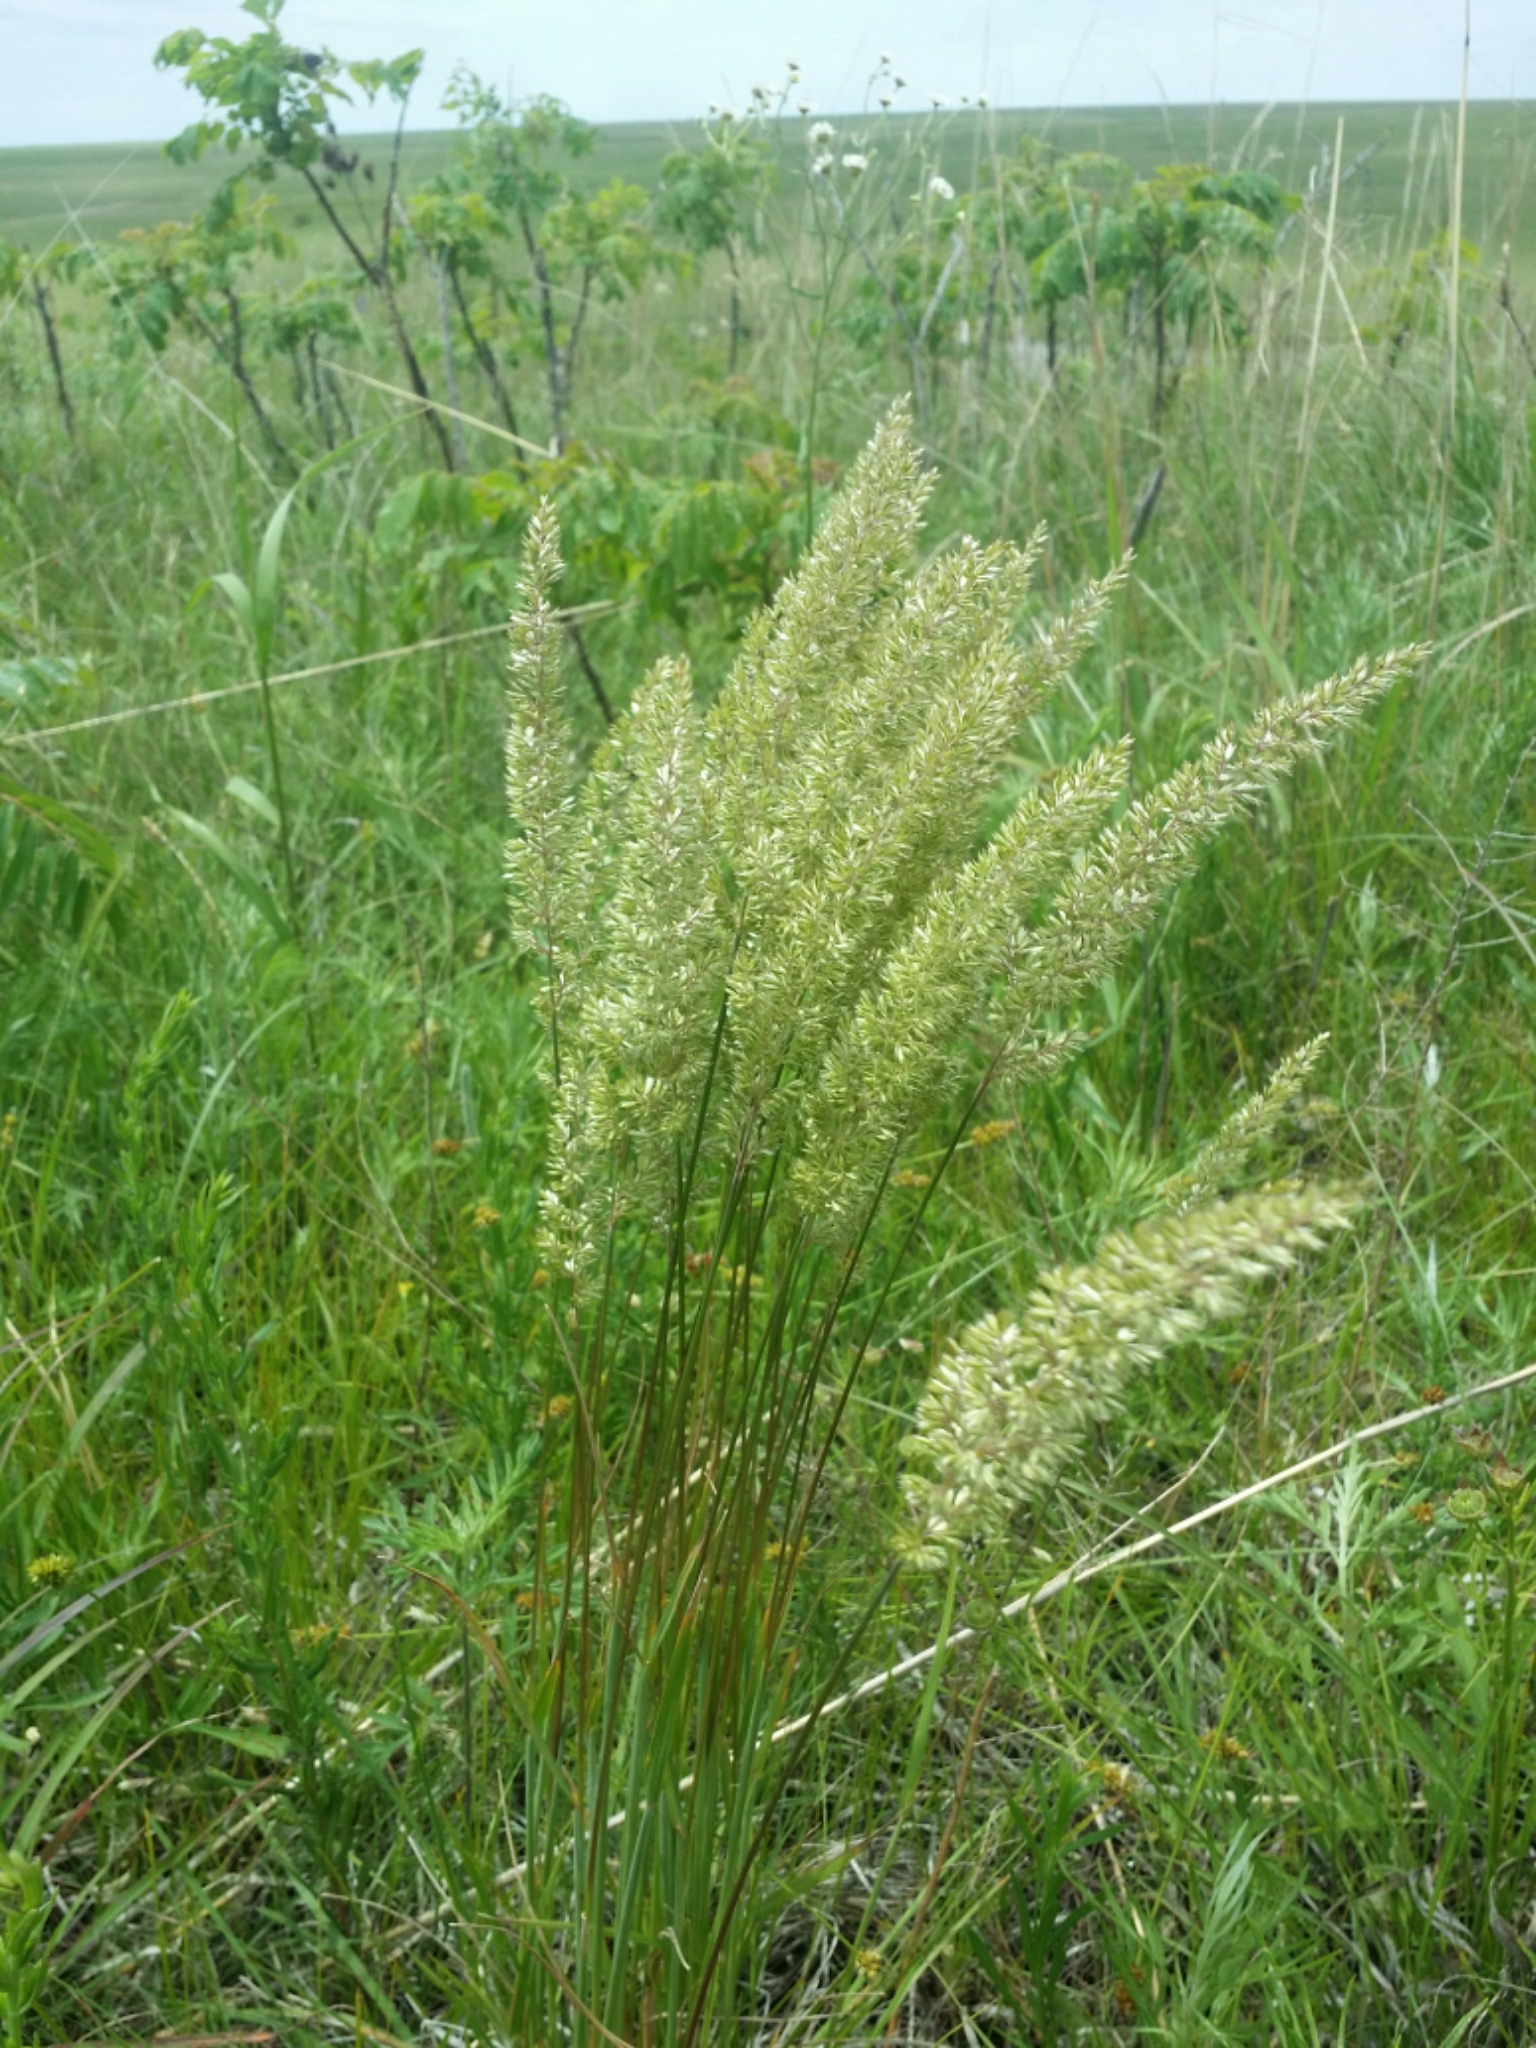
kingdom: Plantae
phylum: Tracheophyta
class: Liliopsida
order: Poales
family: Poaceae
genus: Koeleria
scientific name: Koeleria macrantha
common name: Crested hair-grass
